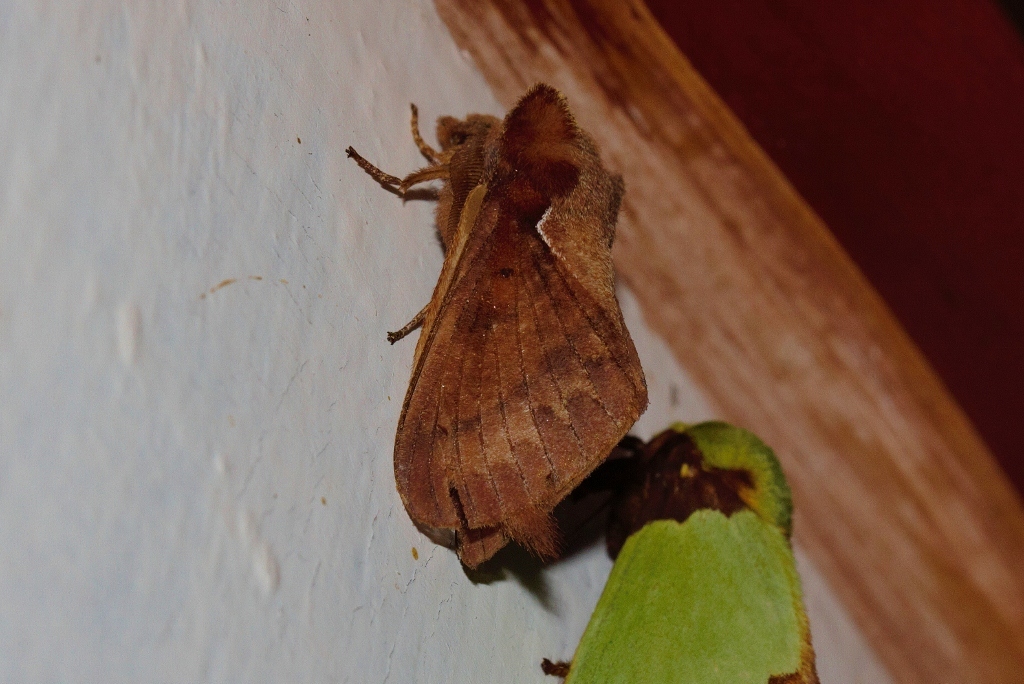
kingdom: Animalia
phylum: Arthropoda
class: Insecta
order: Lepidoptera
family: Lasiocampidae
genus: Stoermeriana
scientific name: Stoermeriana fusca
